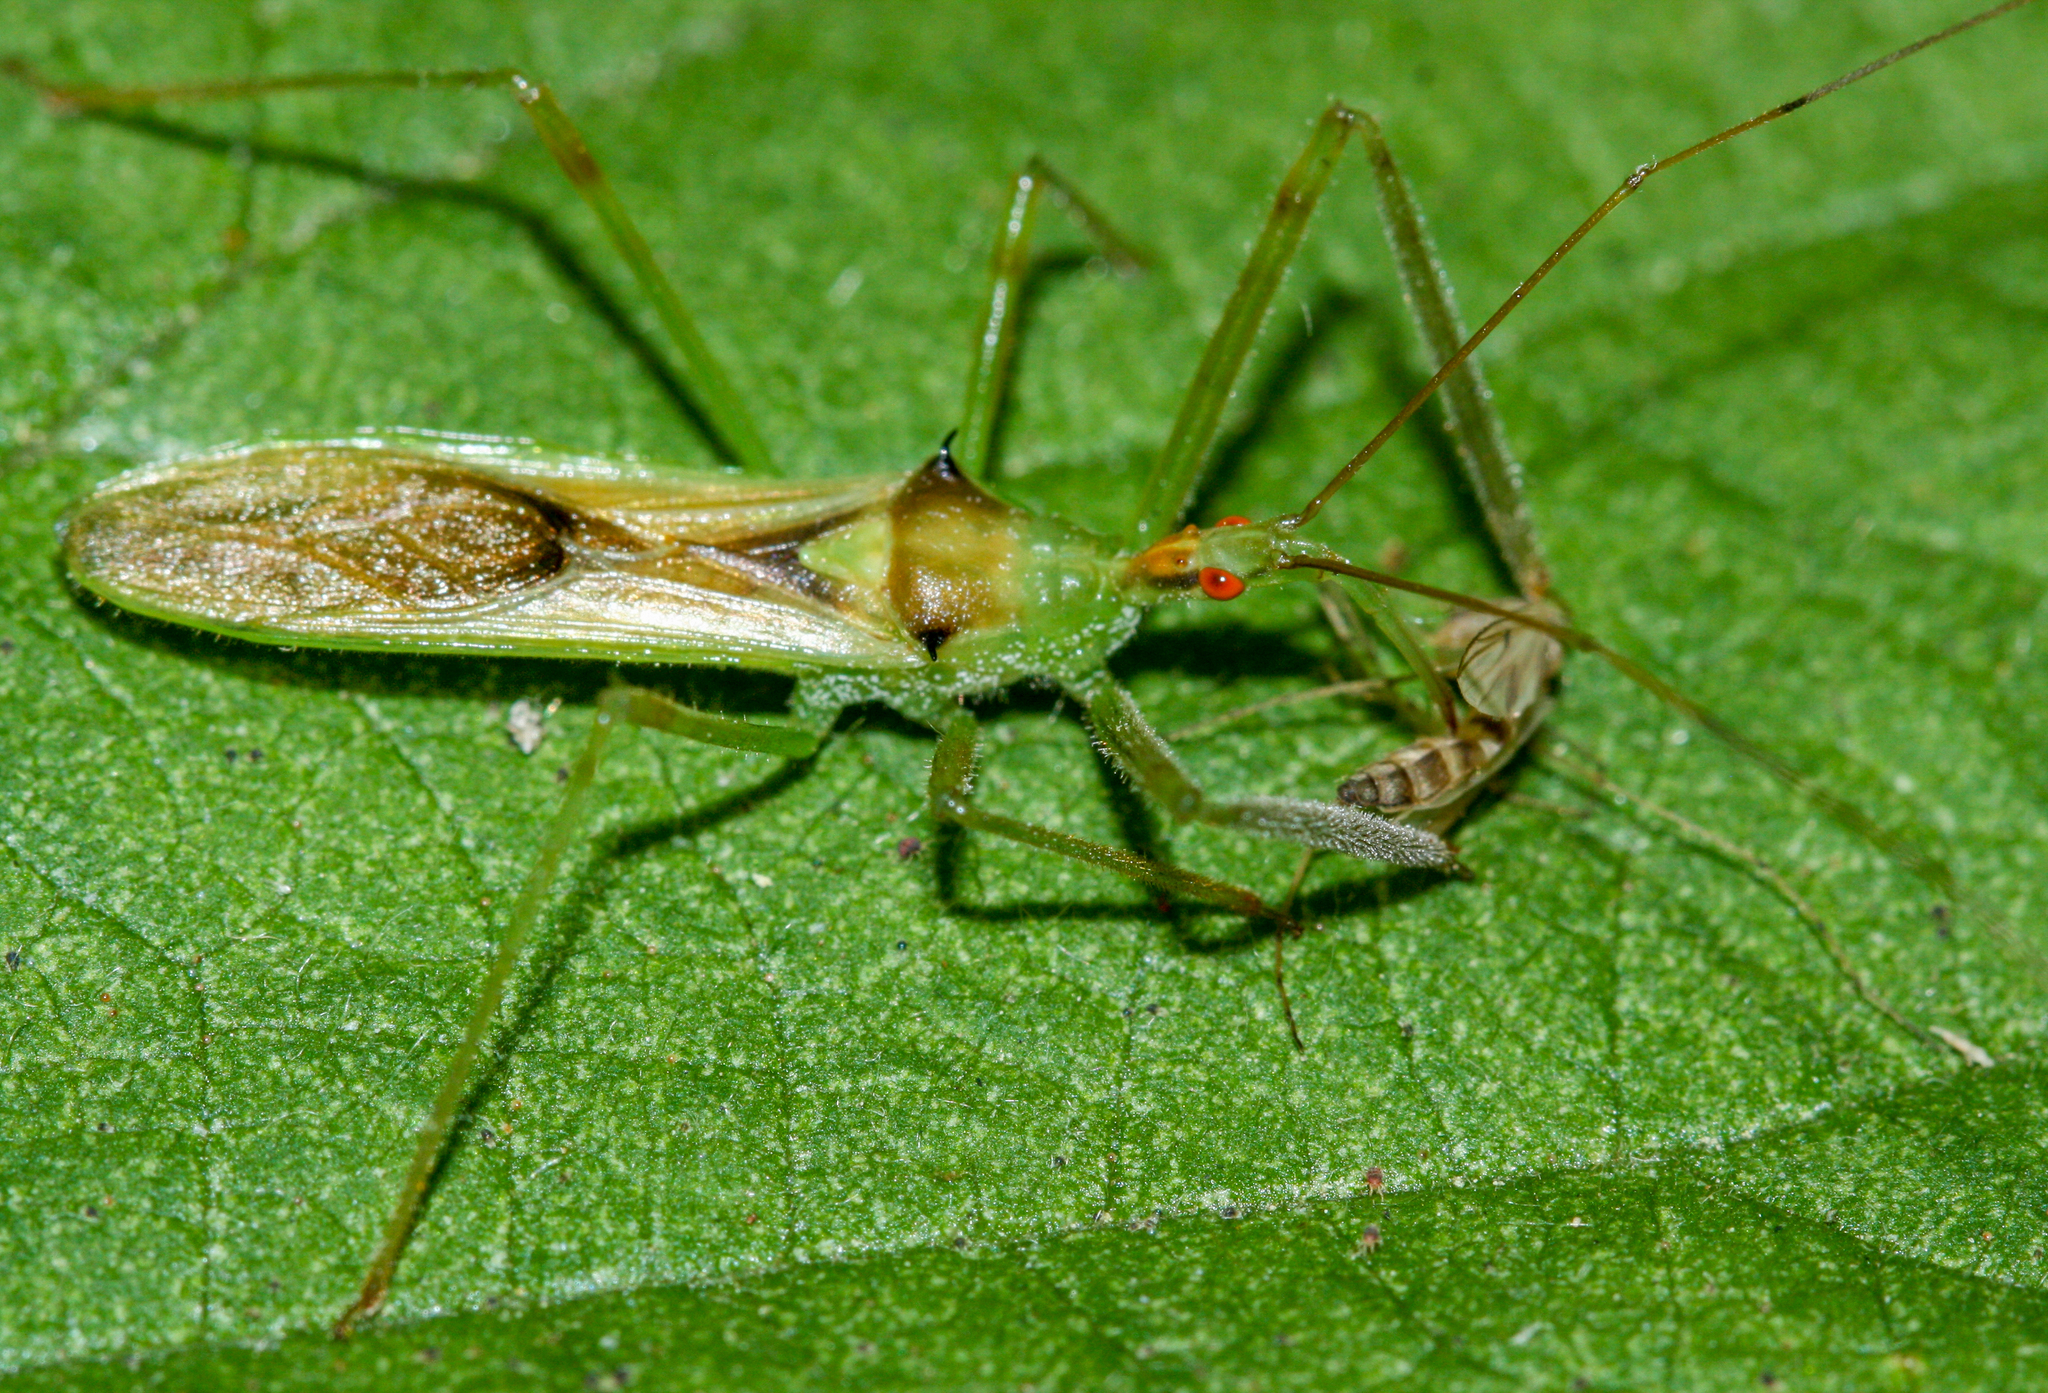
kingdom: Animalia
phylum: Arthropoda
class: Insecta
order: Hemiptera
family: Reduviidae
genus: Zelus
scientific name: Zelus luridus
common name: Pale green assassin bug
